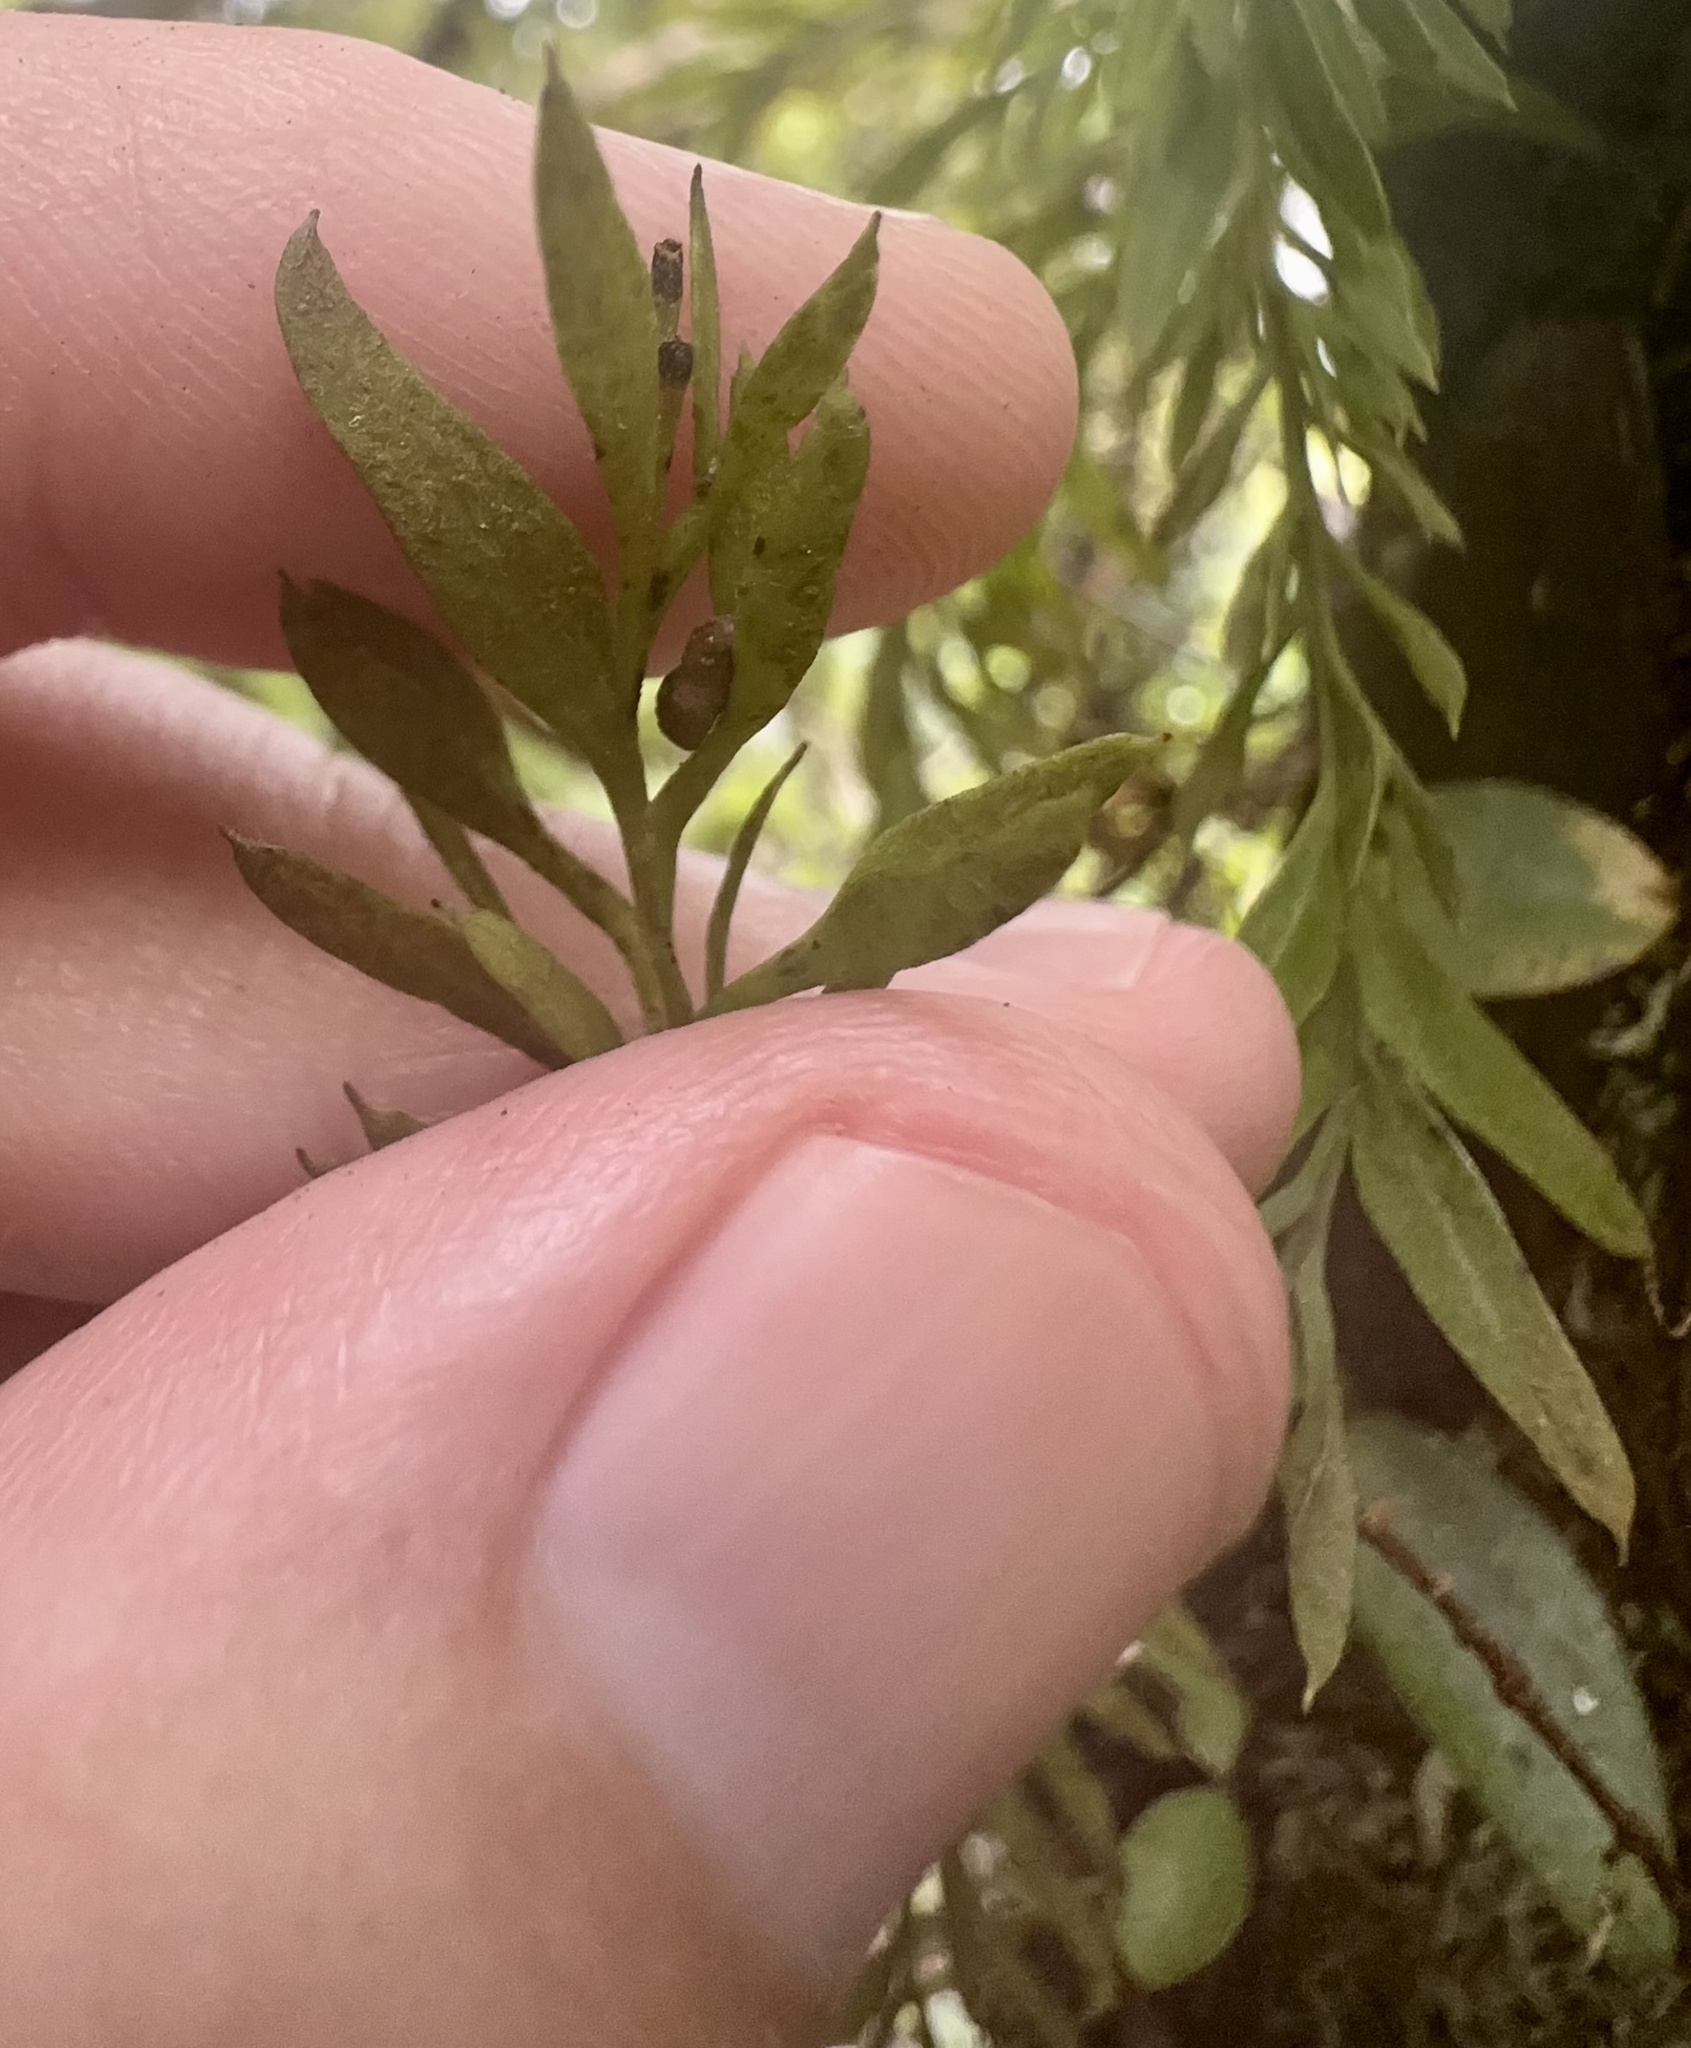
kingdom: Plantae
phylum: Tracheophyta
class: Polypodiopsida
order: Psilotales
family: Psilotaceae
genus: Tmesipteris
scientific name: Tmesipteris elongata
